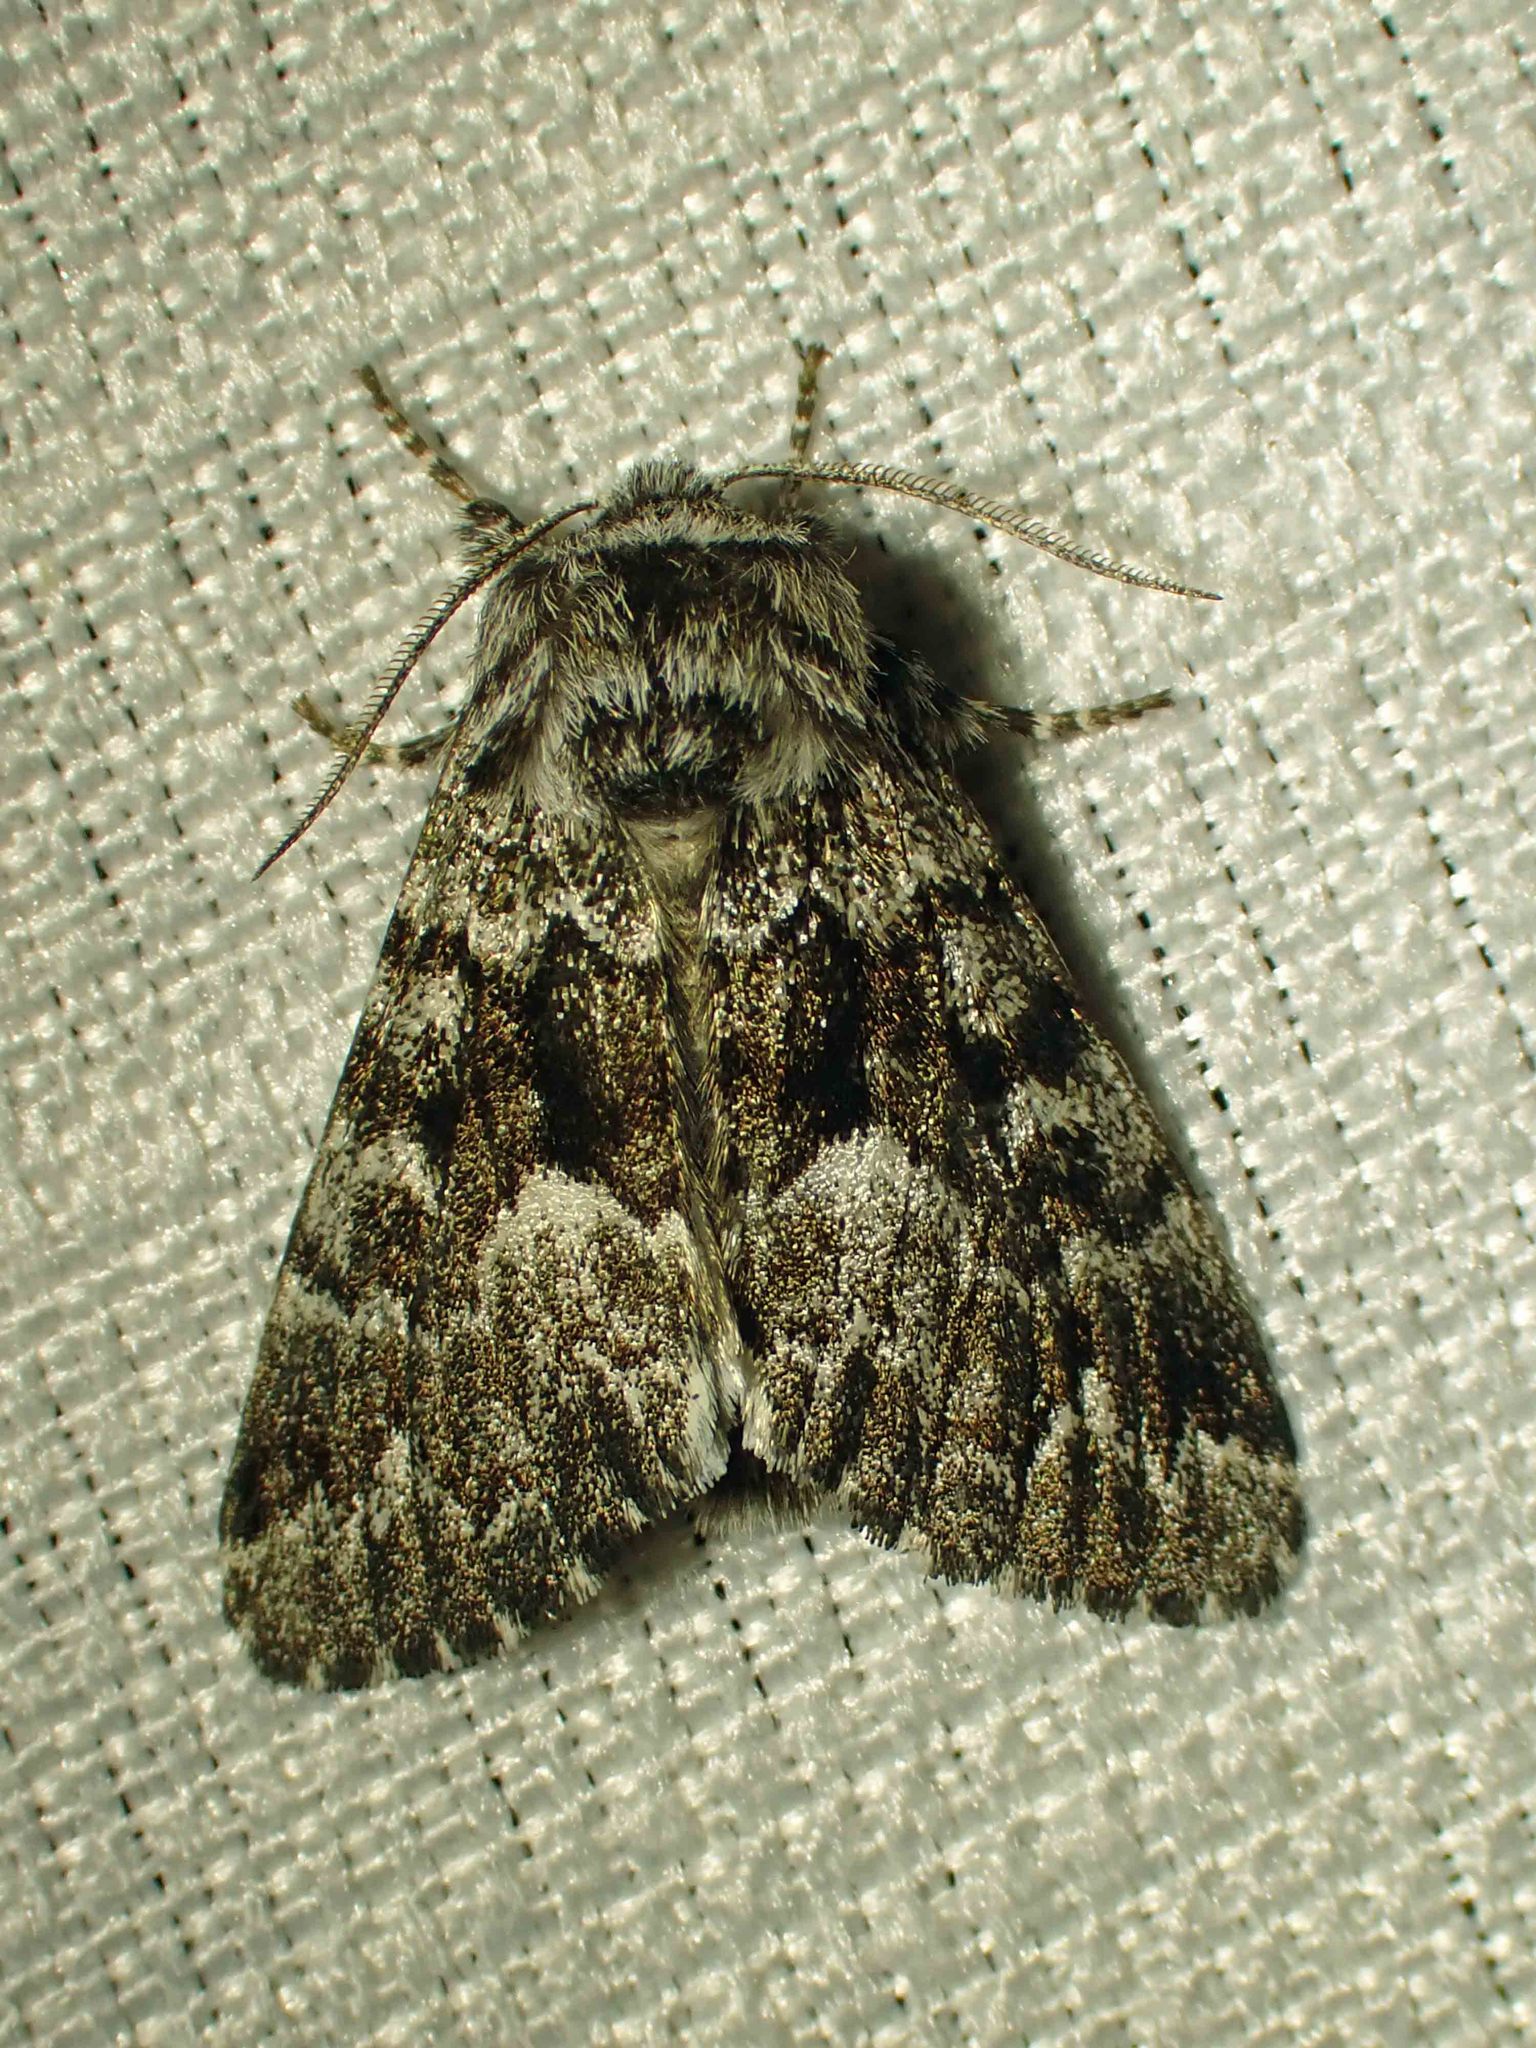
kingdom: Animalia
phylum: Arthropoda
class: Insecta
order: Lepidoptera
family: Noctuidae
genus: Panthea
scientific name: Panthea acronyctoides
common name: Black zigzag moth
